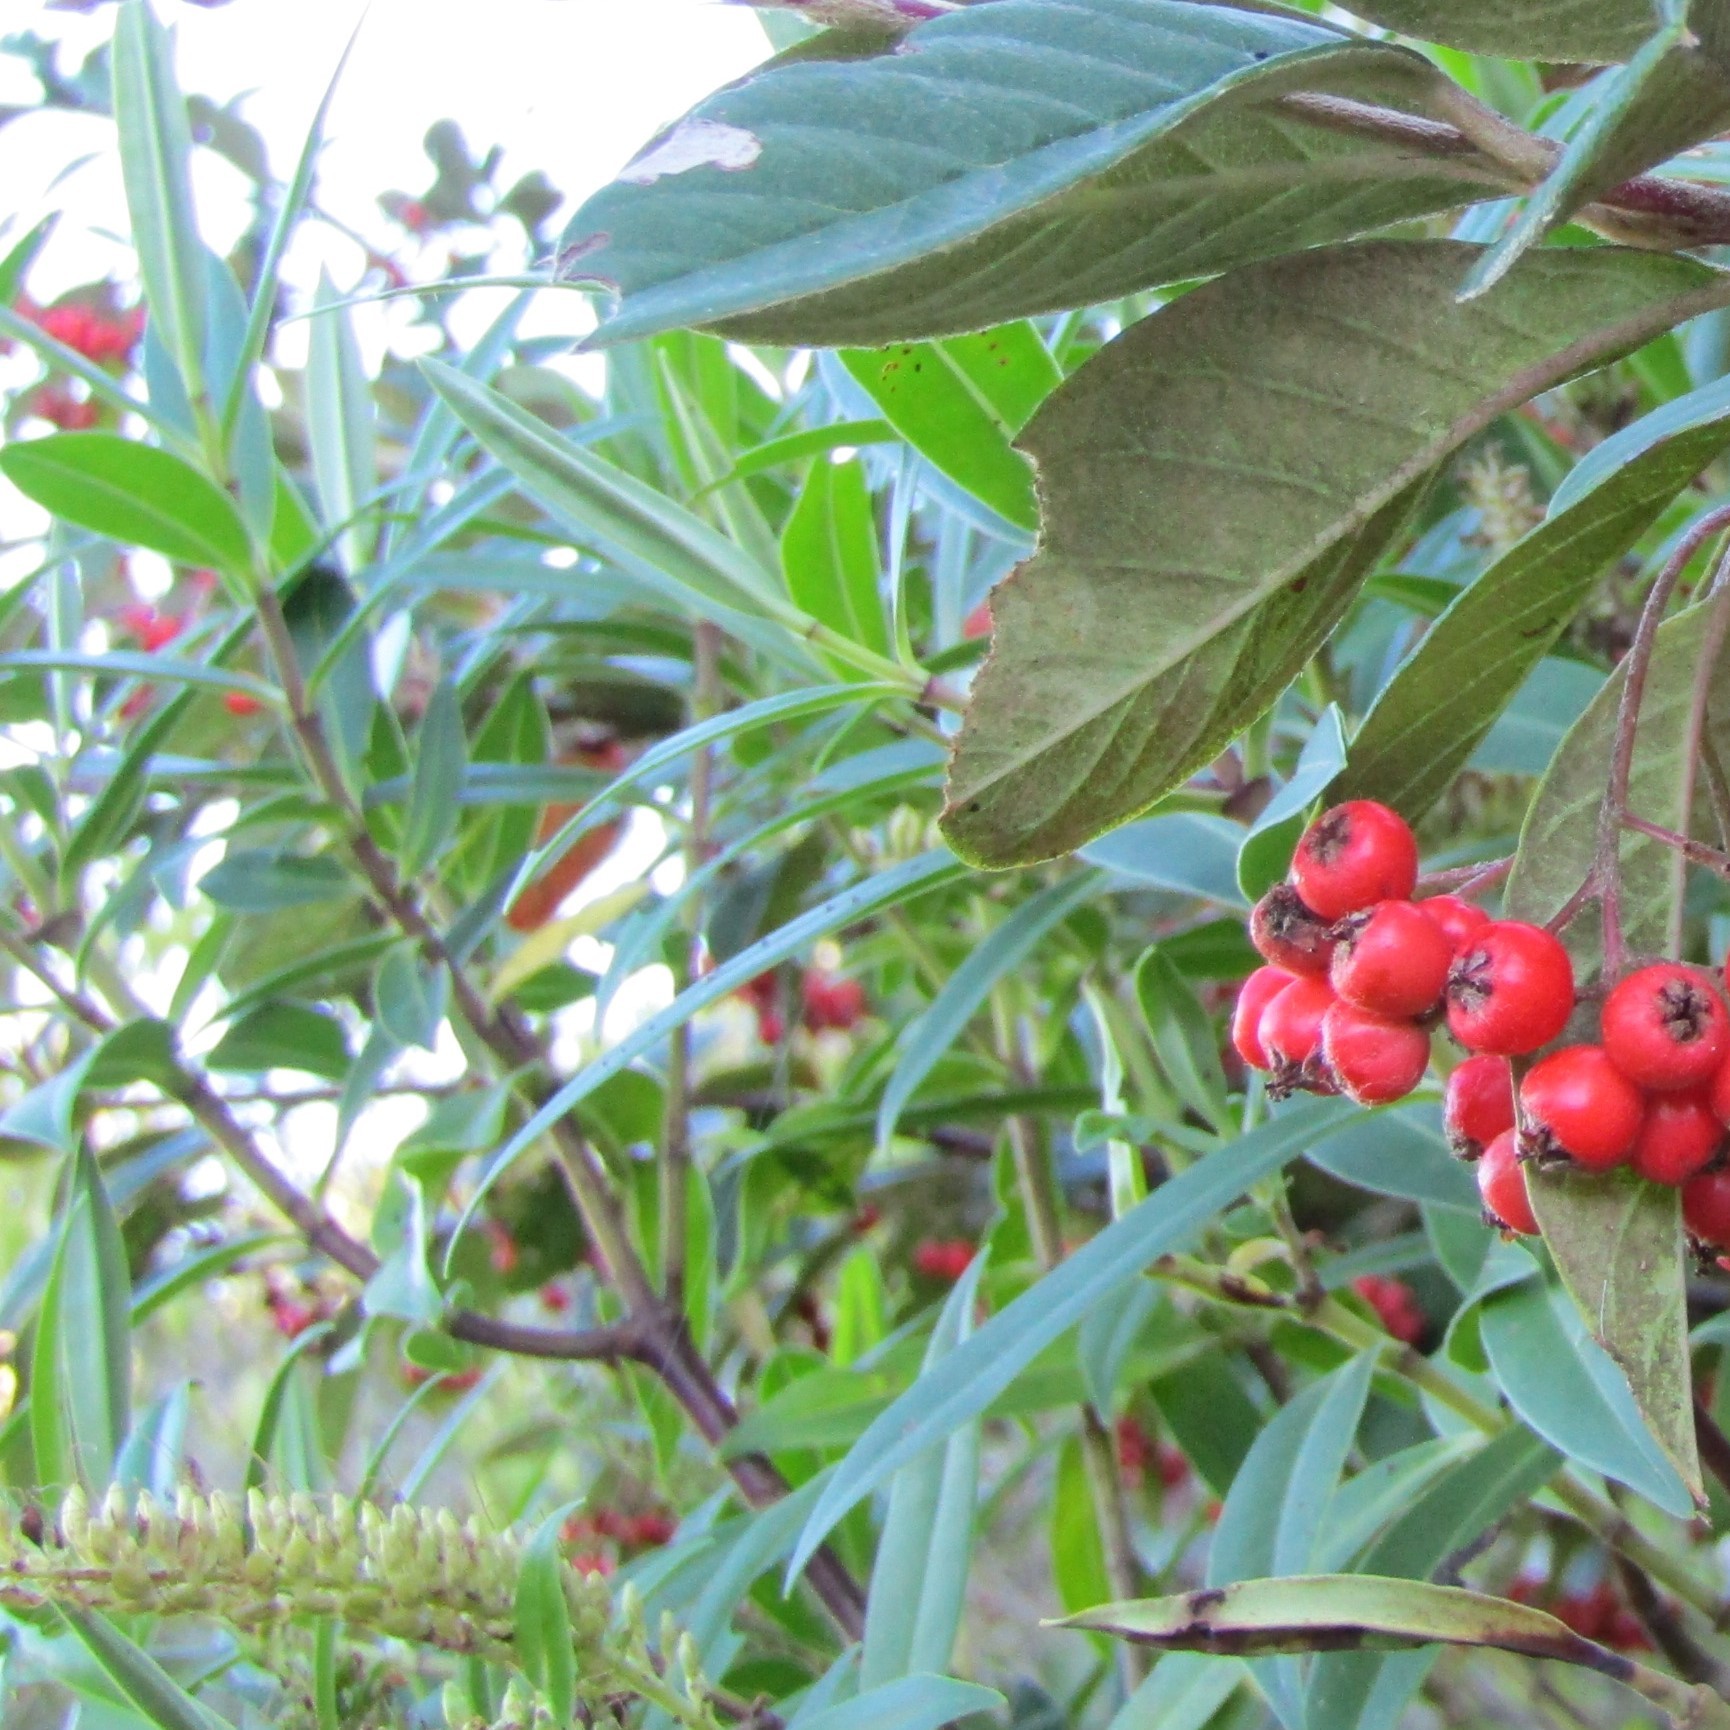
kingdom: Plantae
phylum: Tracheophyta
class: Magnoliopsida
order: Lamiales
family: Plantaginaceae
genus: Veronica
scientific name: Veronica stricta
